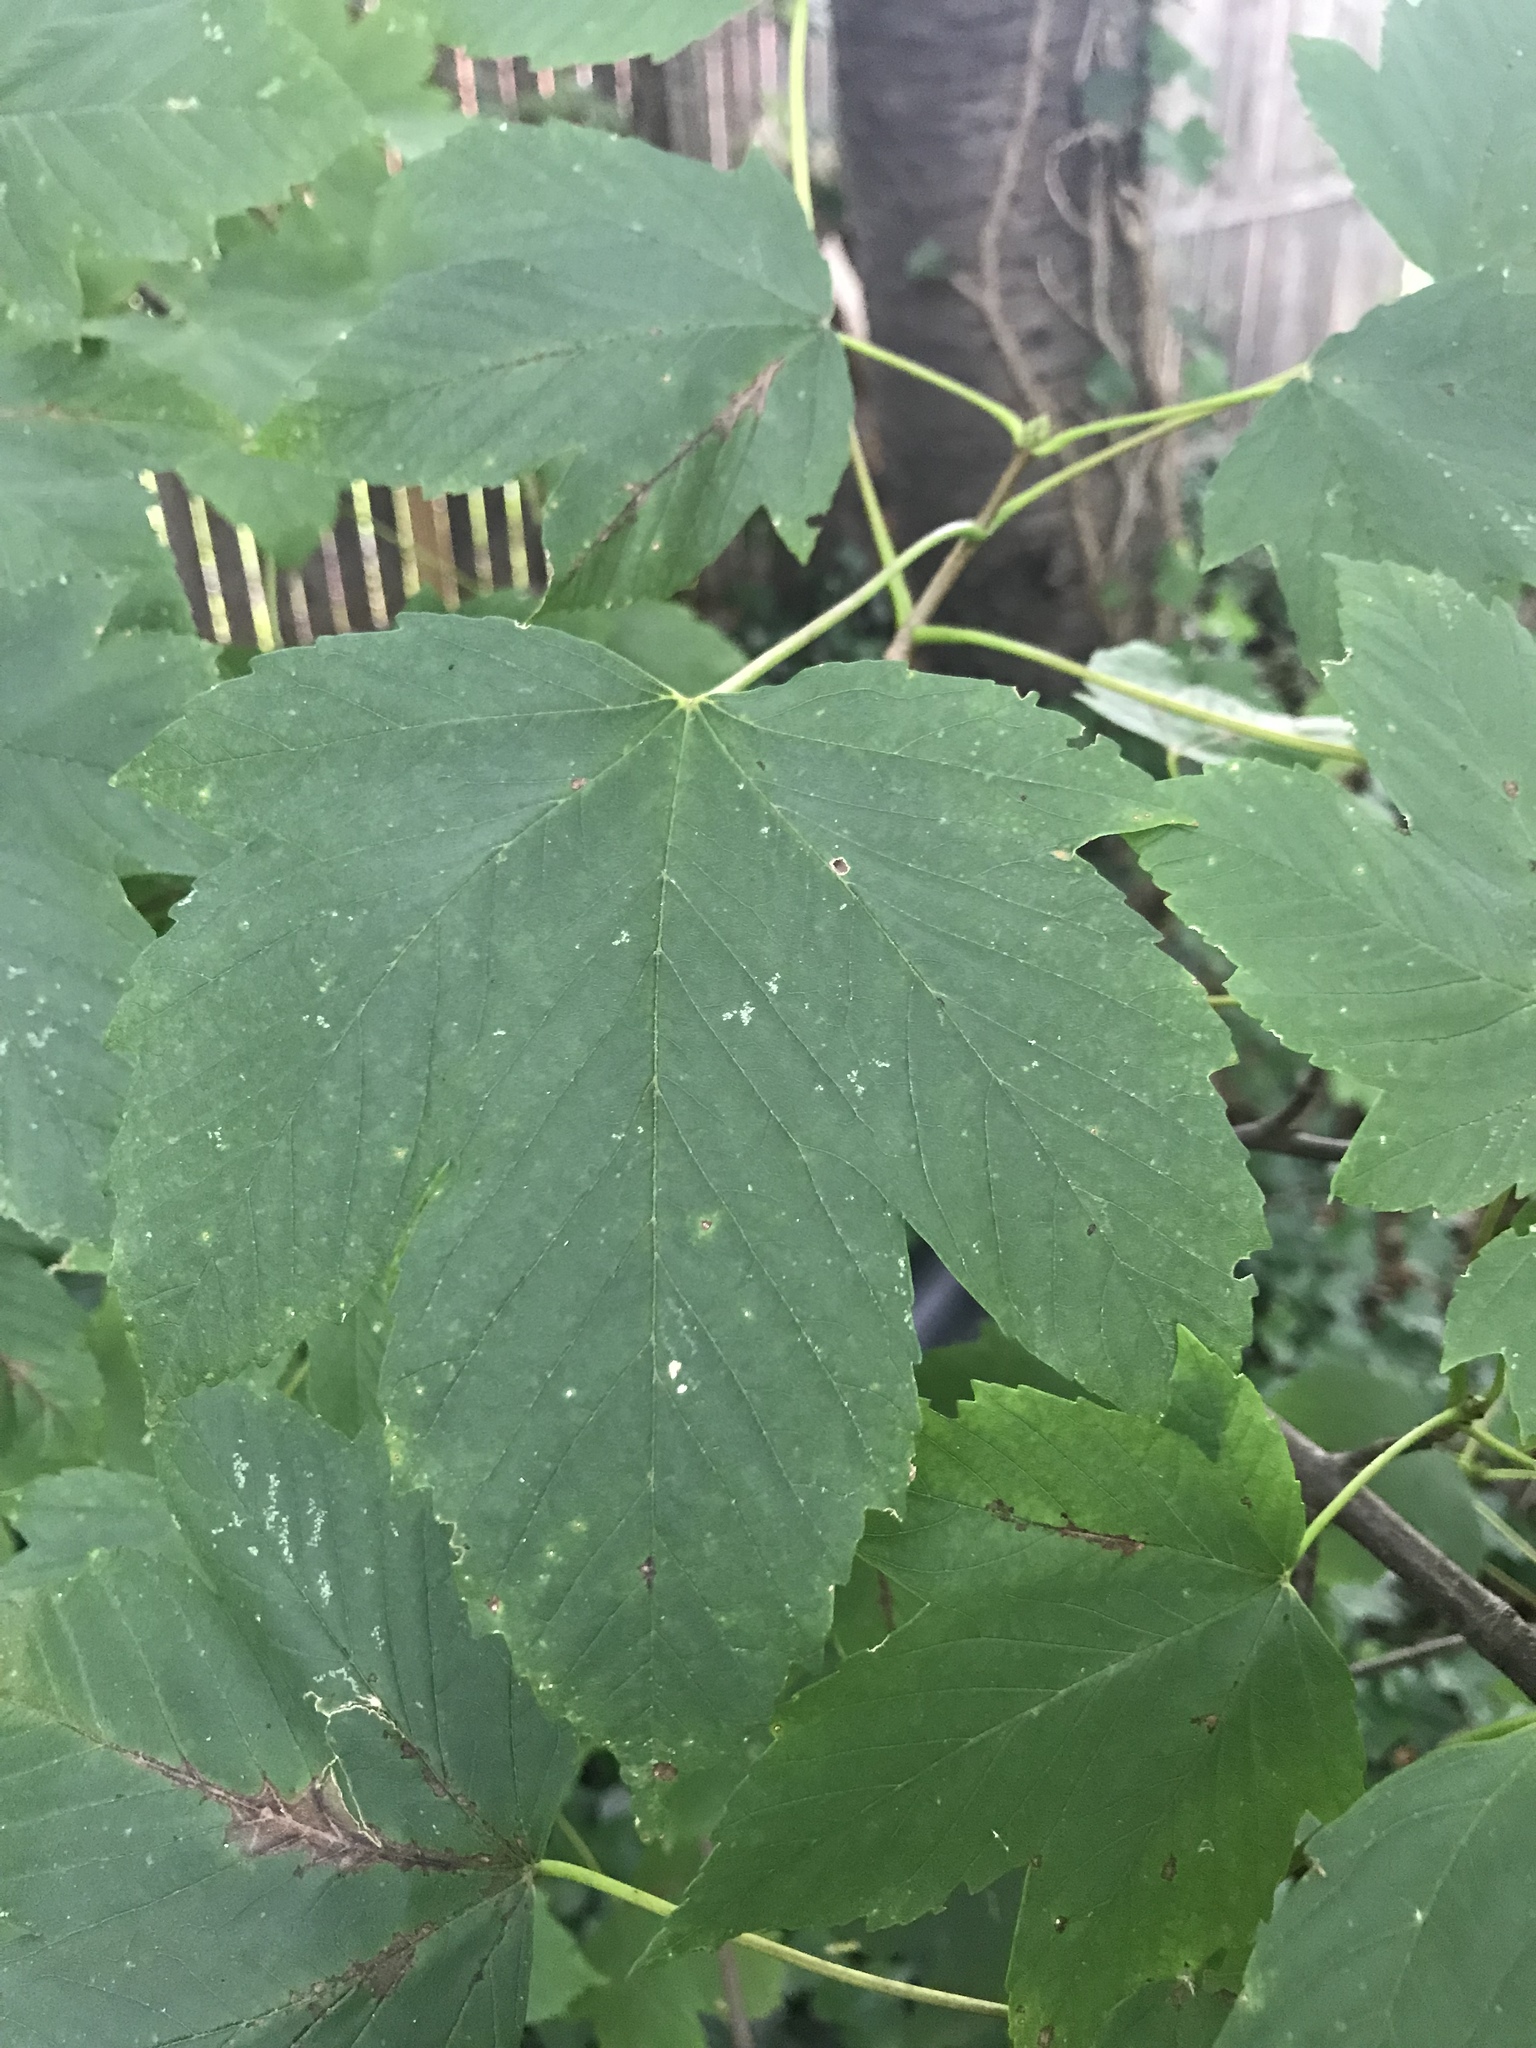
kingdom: Plantae
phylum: Tracheophyta
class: Magnoliopsida
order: Sapindales
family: Sapindaceae
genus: Acer
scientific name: Acer pseudoplatanus
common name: Sycamore
